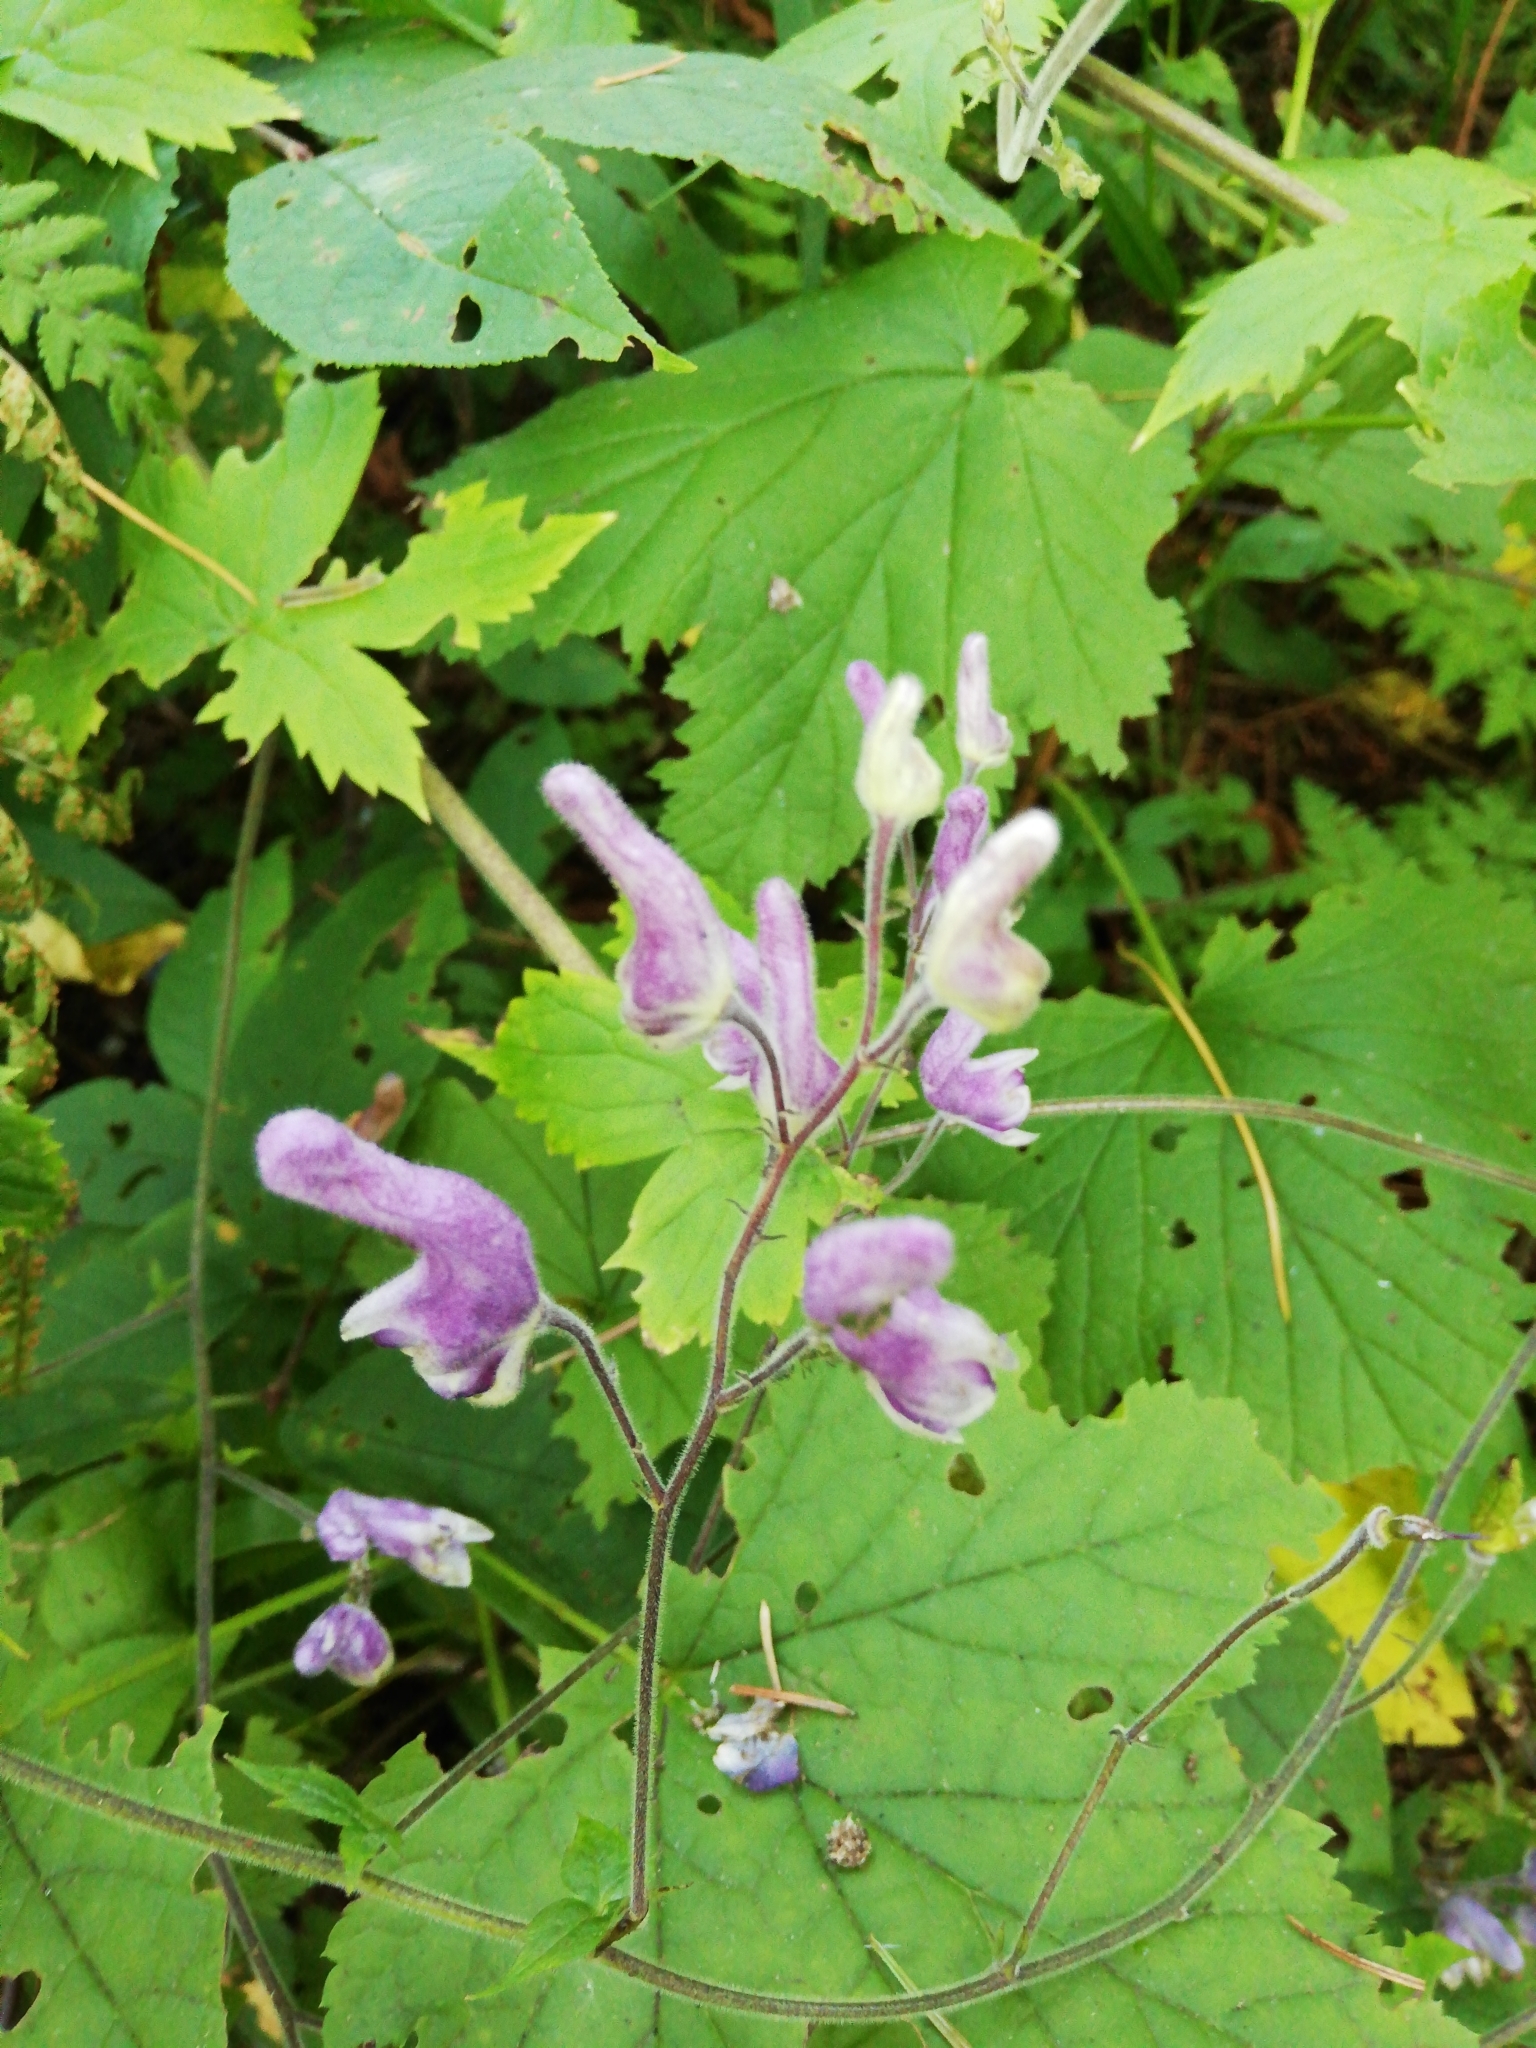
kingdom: Plantae
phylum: Tracheophyta
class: Magnoliopsida
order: Ranunculales
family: Ranunculaceae
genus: Aconitum
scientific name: Aconitum septentrionale
